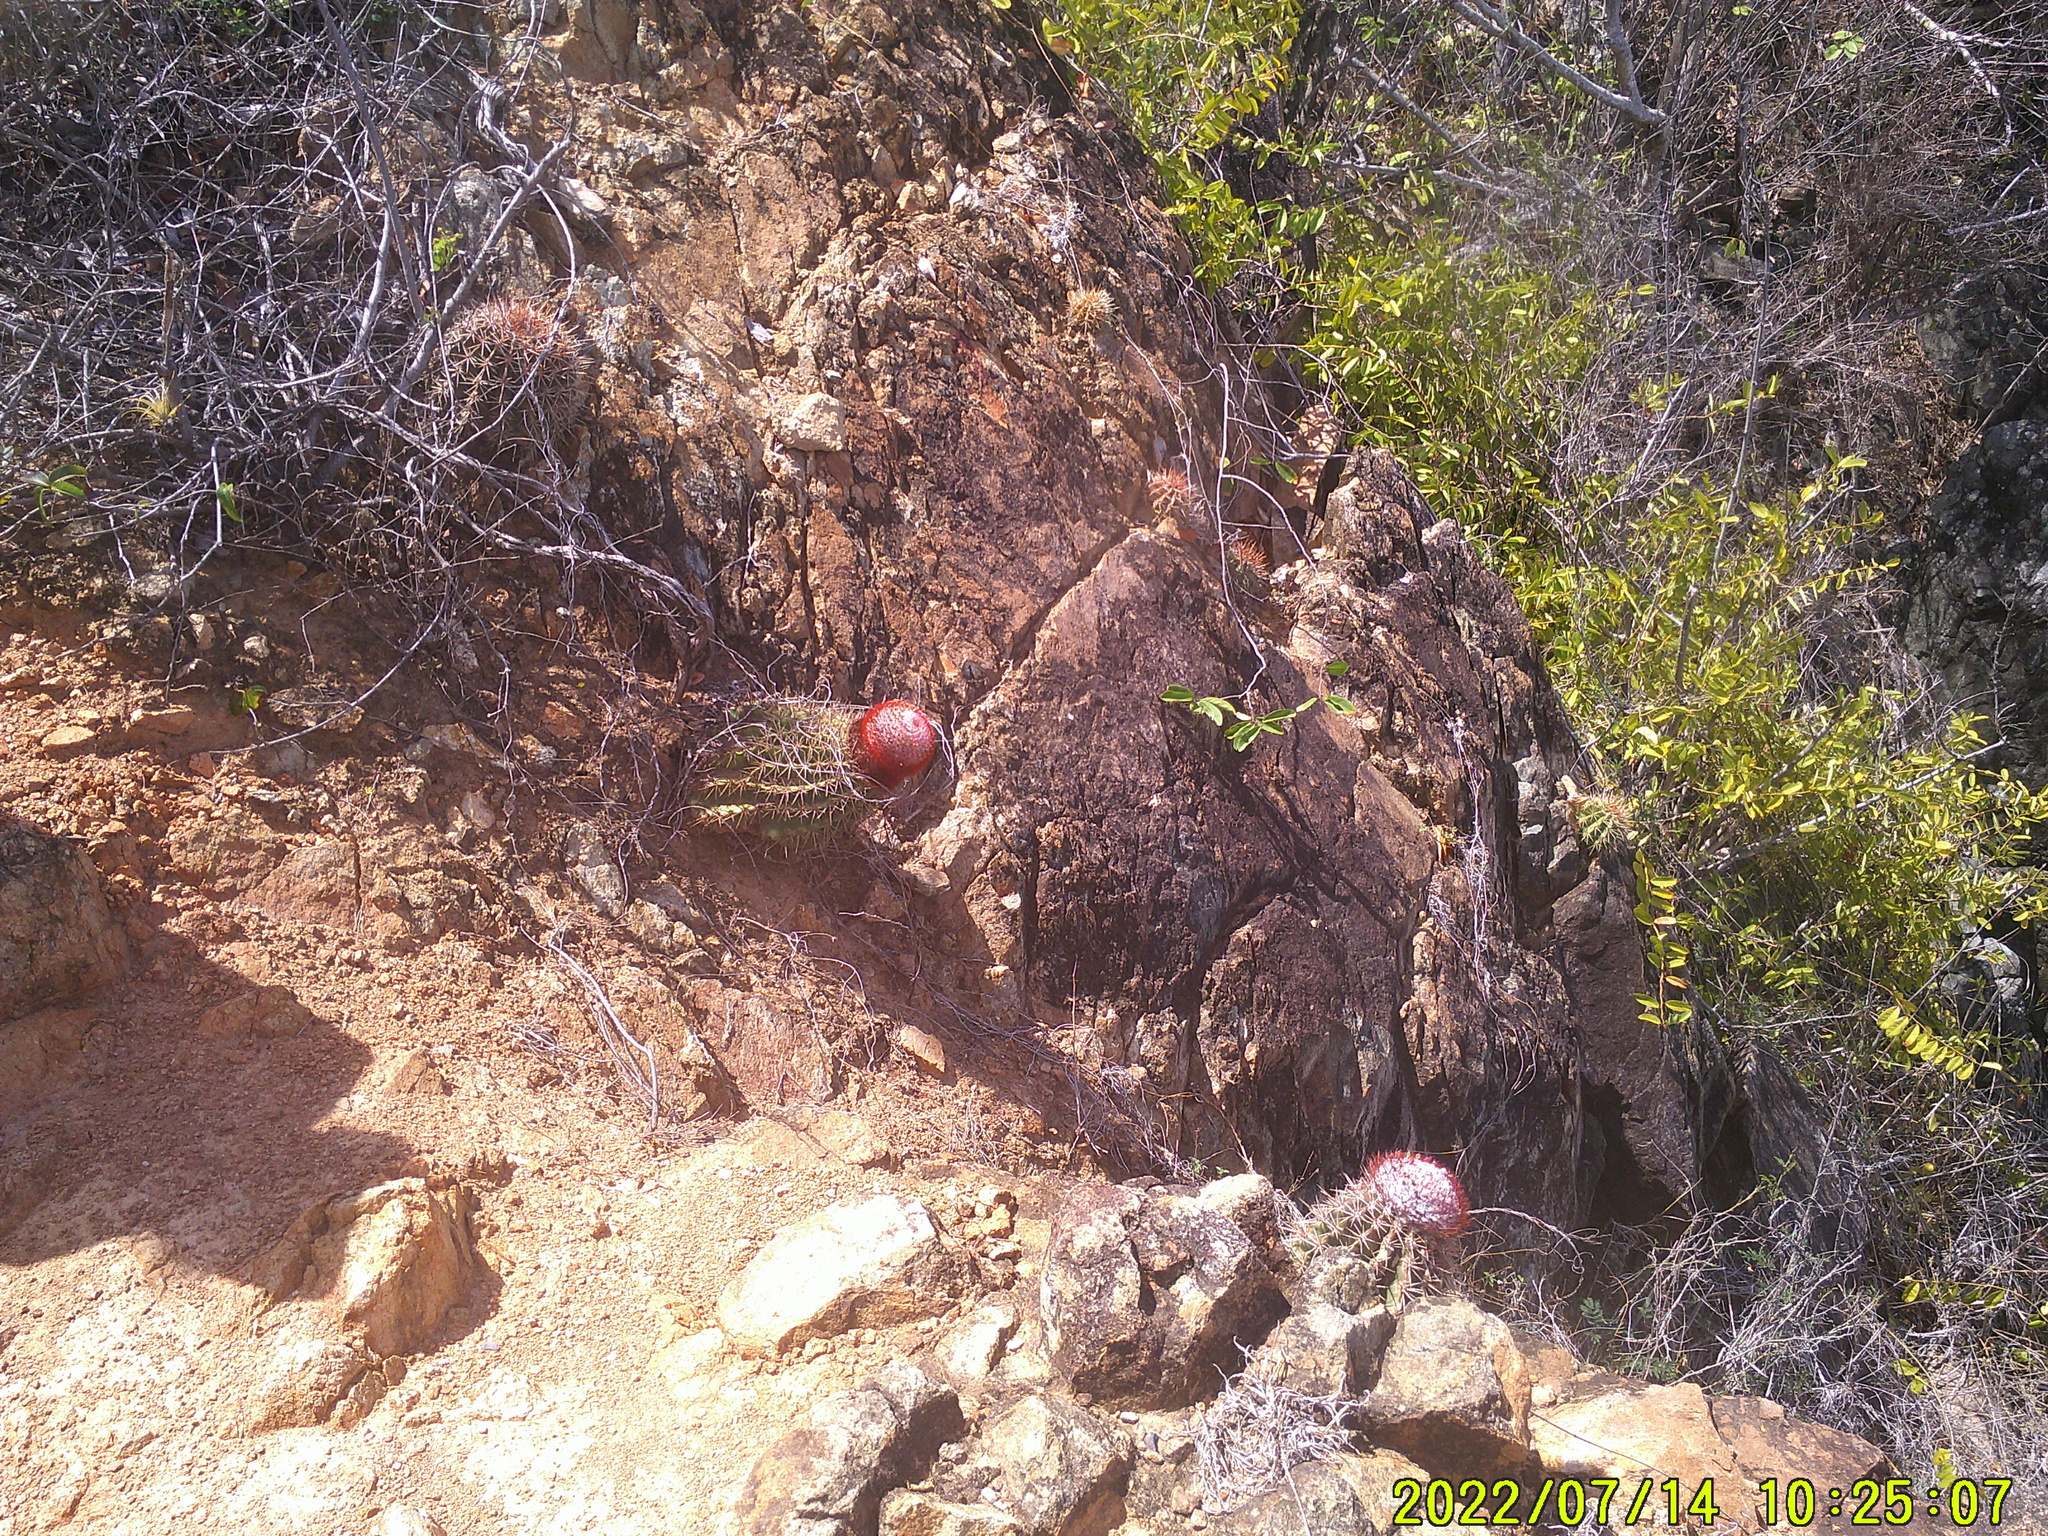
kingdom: Plantae
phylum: Tracheophyta
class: Magnoliopsida
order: Caryophyllales
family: Cactaceae
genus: Melocactus
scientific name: Melocactus intortus
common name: Barrel cactus
